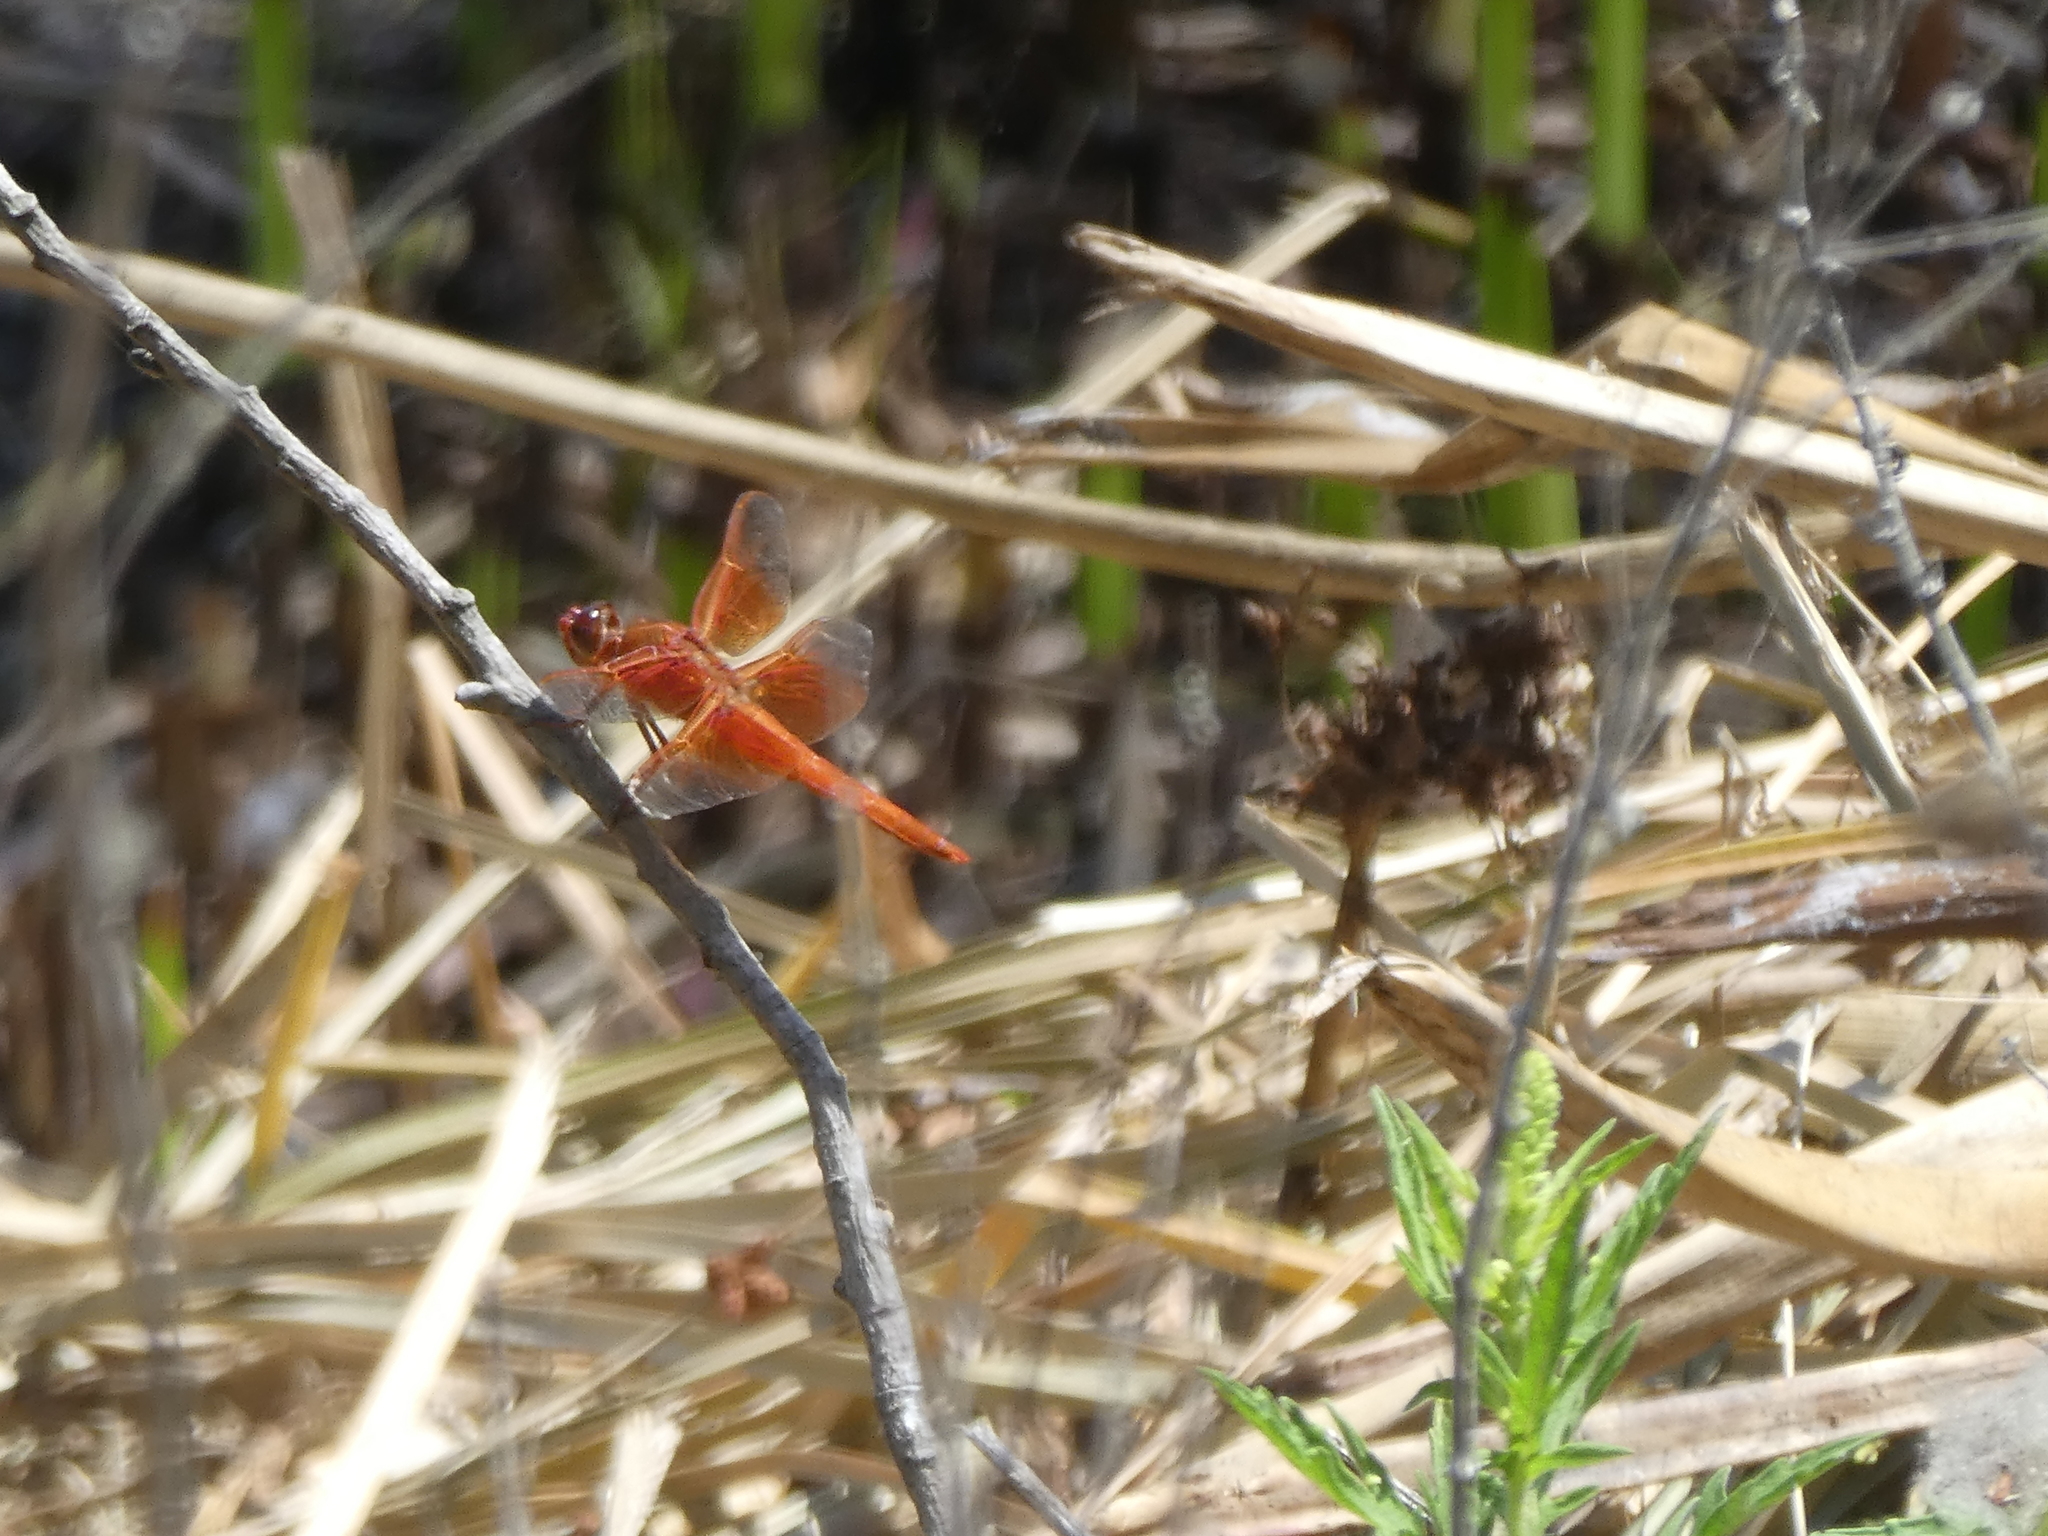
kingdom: Animalia
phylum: Arthropoda
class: Insecta
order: Odonata
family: Libellulidae
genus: Libellula
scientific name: Libellula saturata
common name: Flame skimmer
